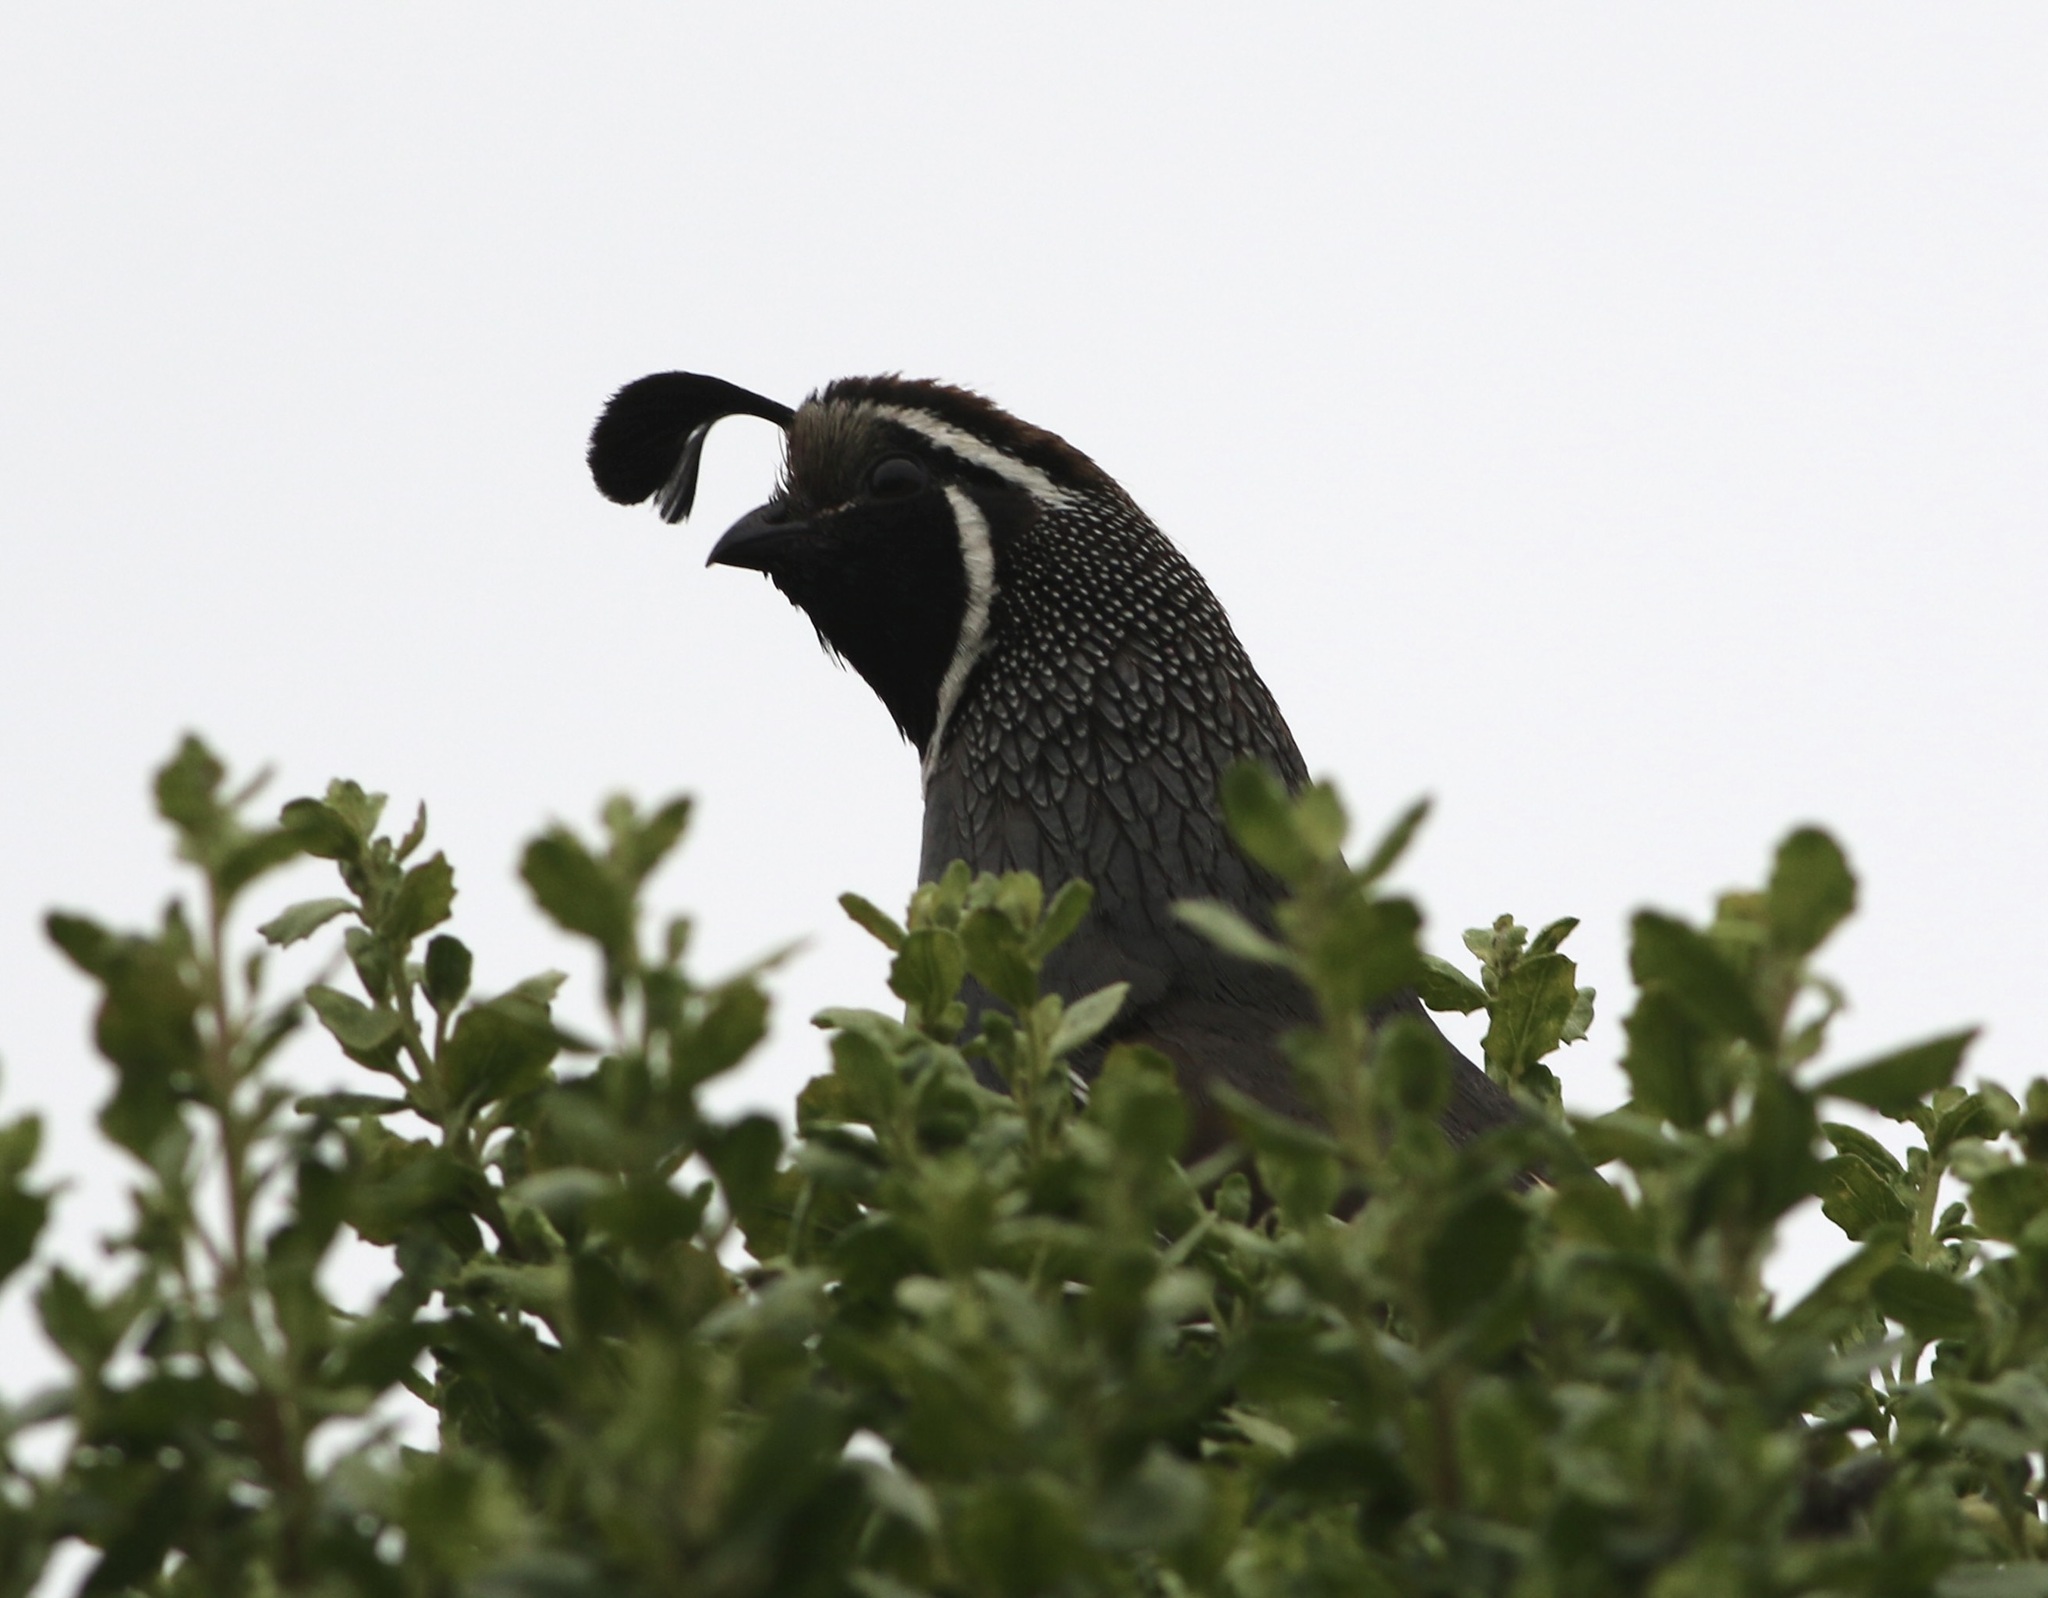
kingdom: Animalia
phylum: Chordata
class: Aves
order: Galliformes
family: Odontophoridae
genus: Callipepla
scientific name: Callipepla californica
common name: California quail
